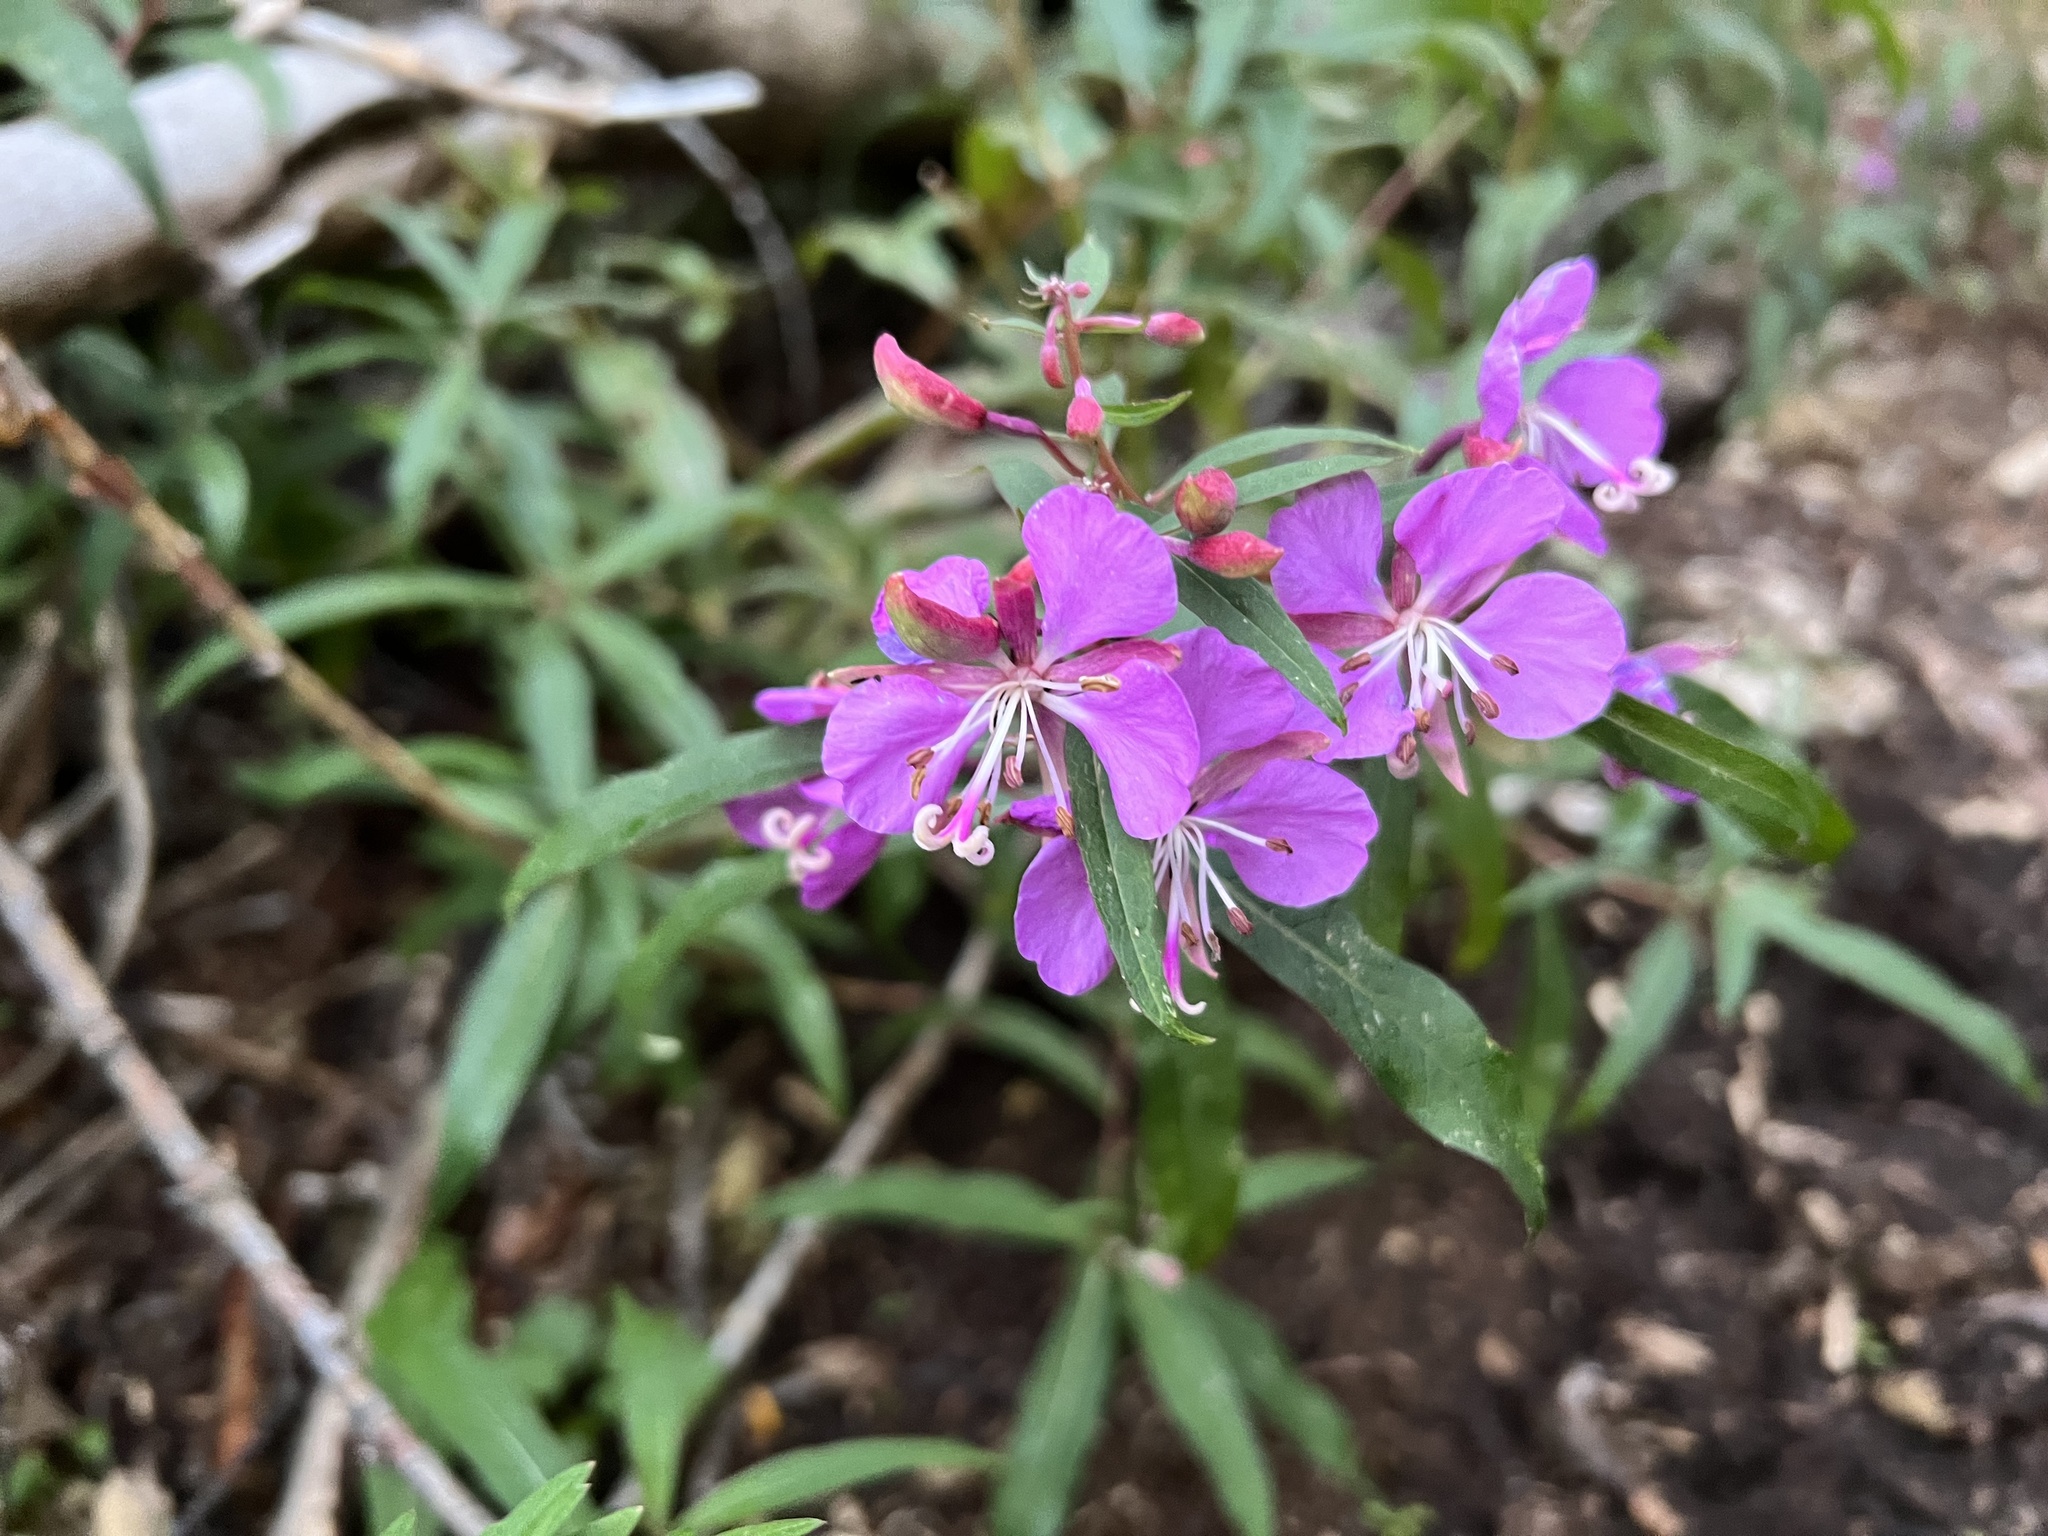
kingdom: Plantae
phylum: Tracheophyta
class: Magnoliopsida
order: Myrtales
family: Onagraceae
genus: Chamaenerion
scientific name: Chamaenerion angustifolium
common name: Fireweed
